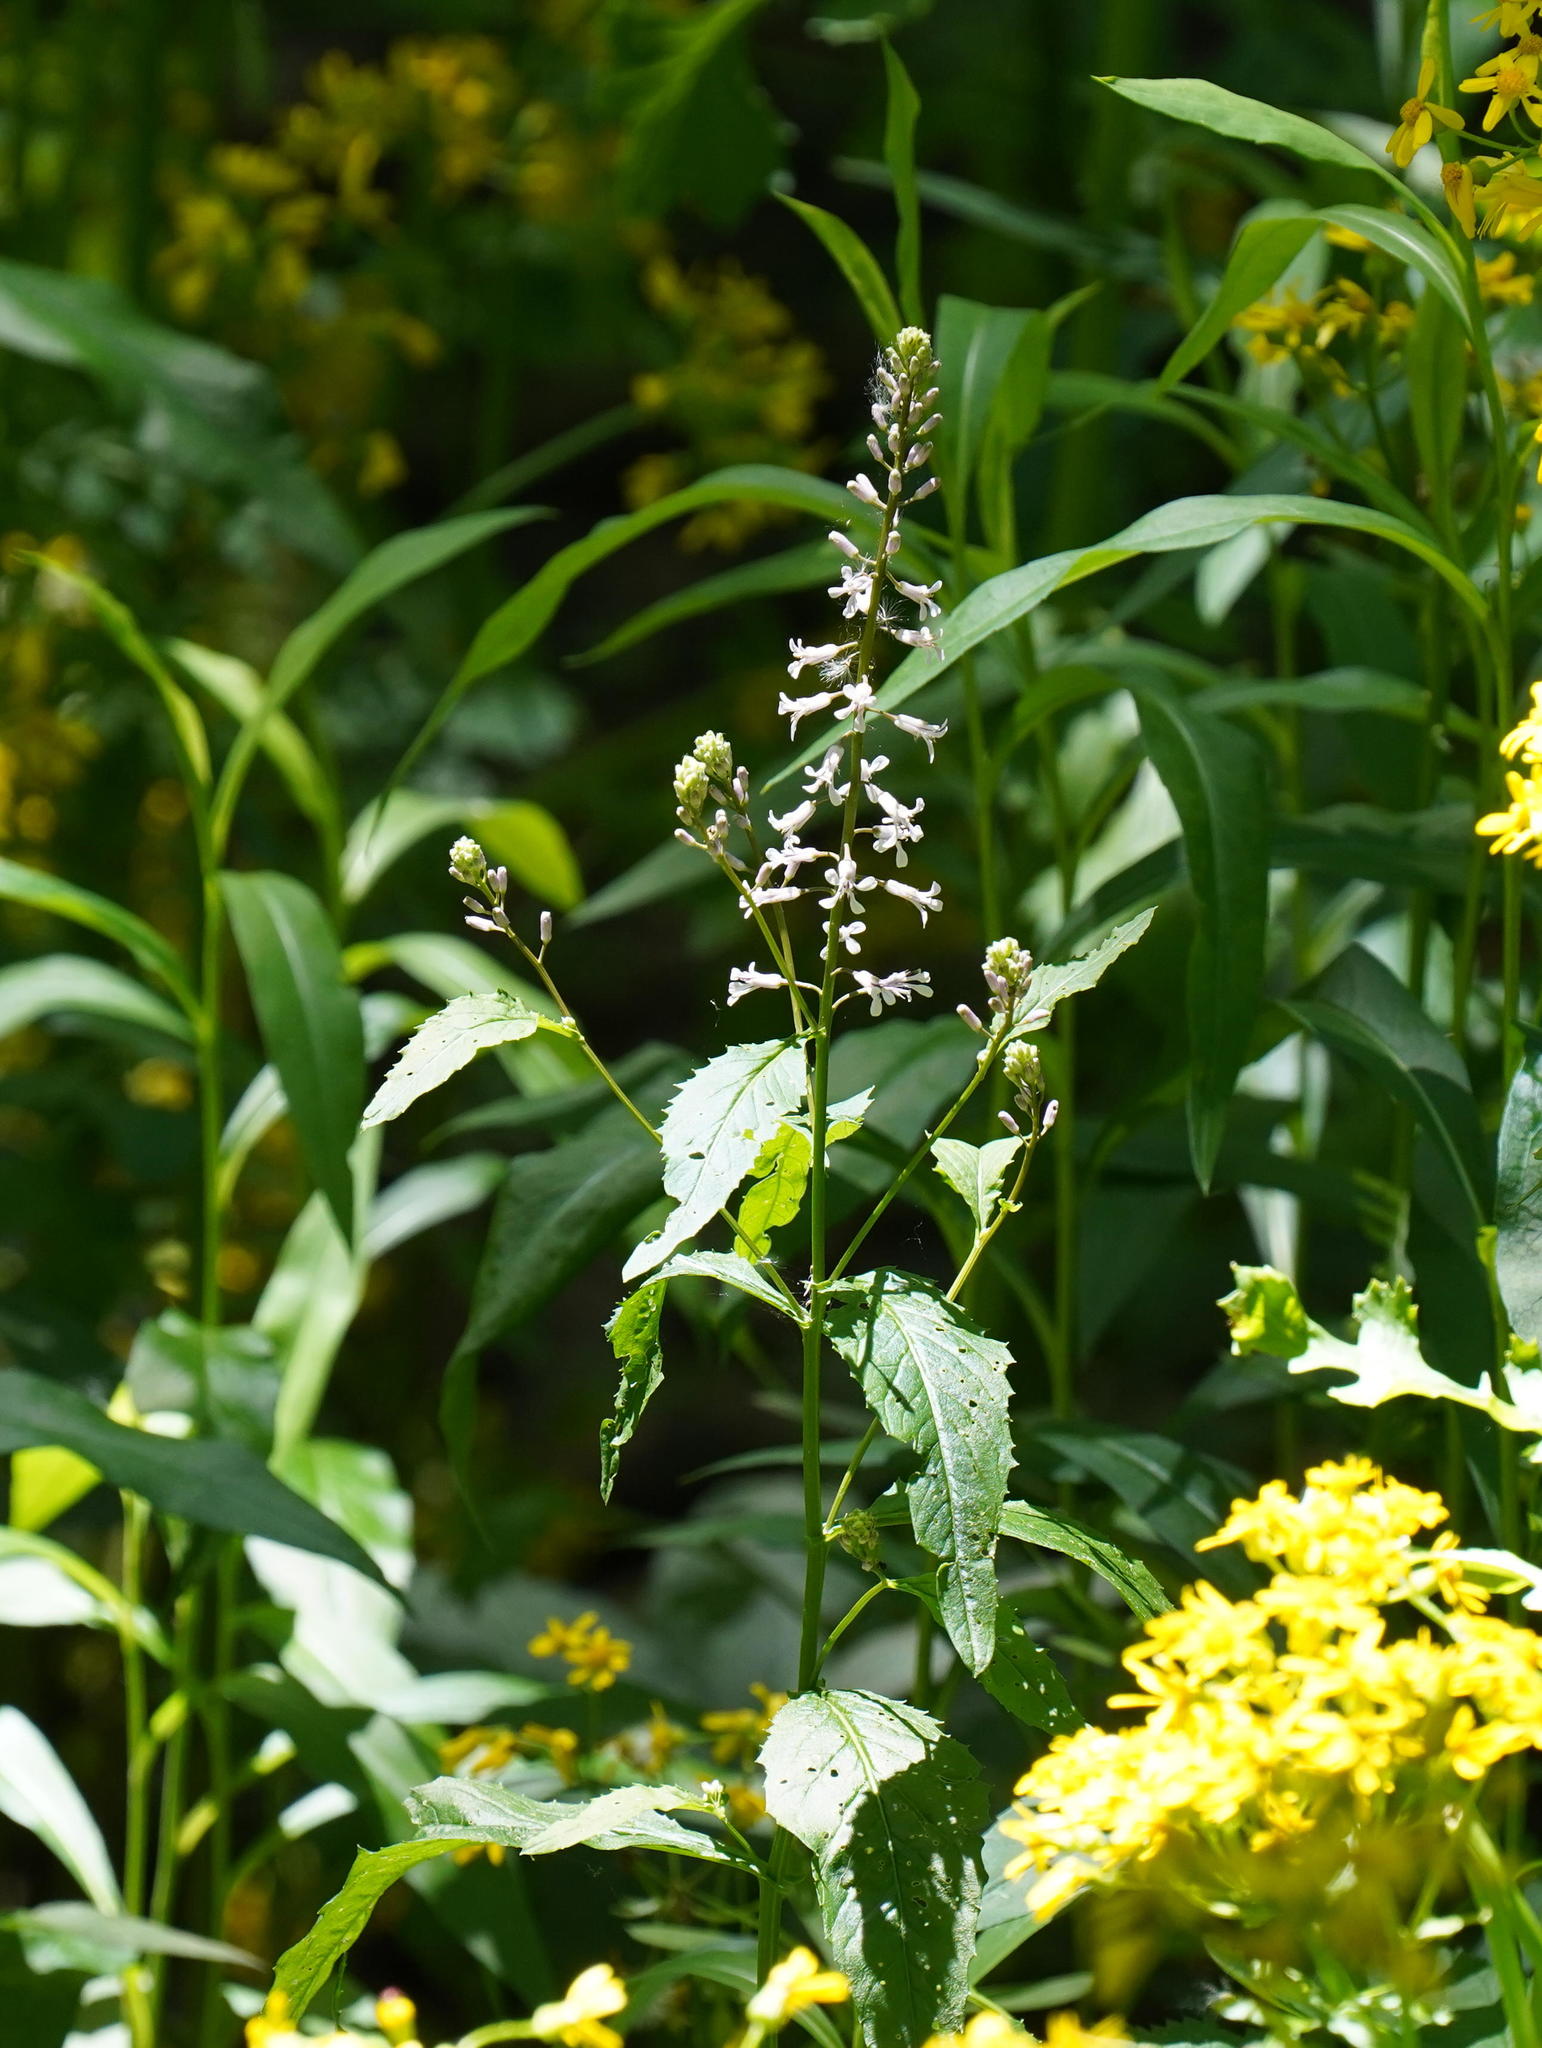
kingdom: Plantae
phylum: Tracheophyta
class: Magnoliopsida
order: Brassicales
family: Brassicaceae
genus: Iodanthus
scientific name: Iodanthus pinnatifidus
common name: Violet rocket
